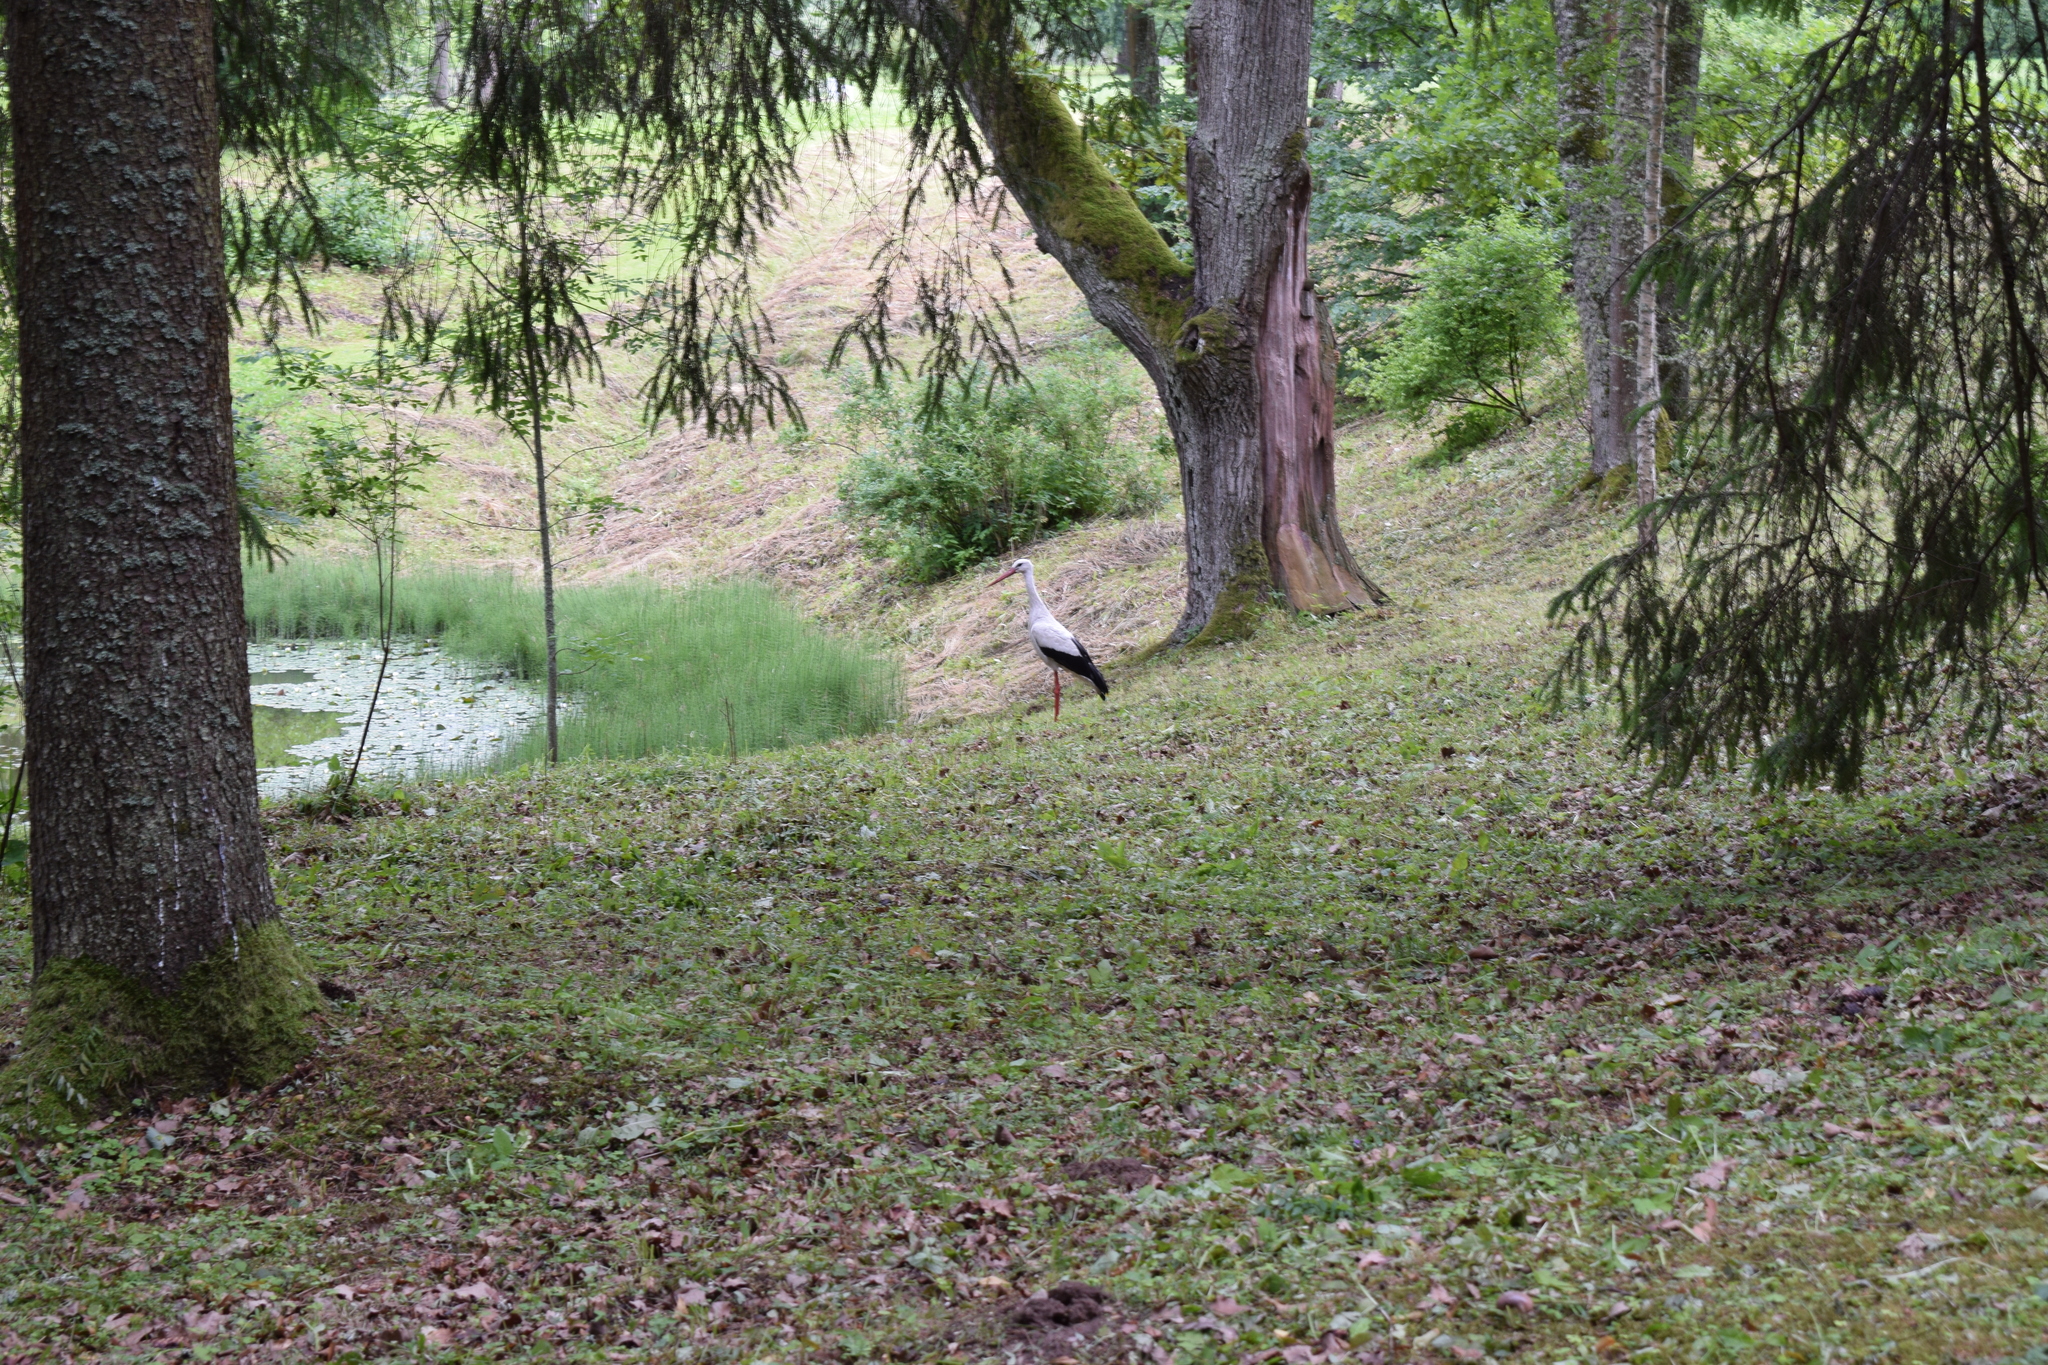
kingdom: Animalia
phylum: Chordata
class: Aves
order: Ciconiiformes
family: Ciconiidae
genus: Ciconia
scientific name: Ciconia ciconia
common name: White stork
